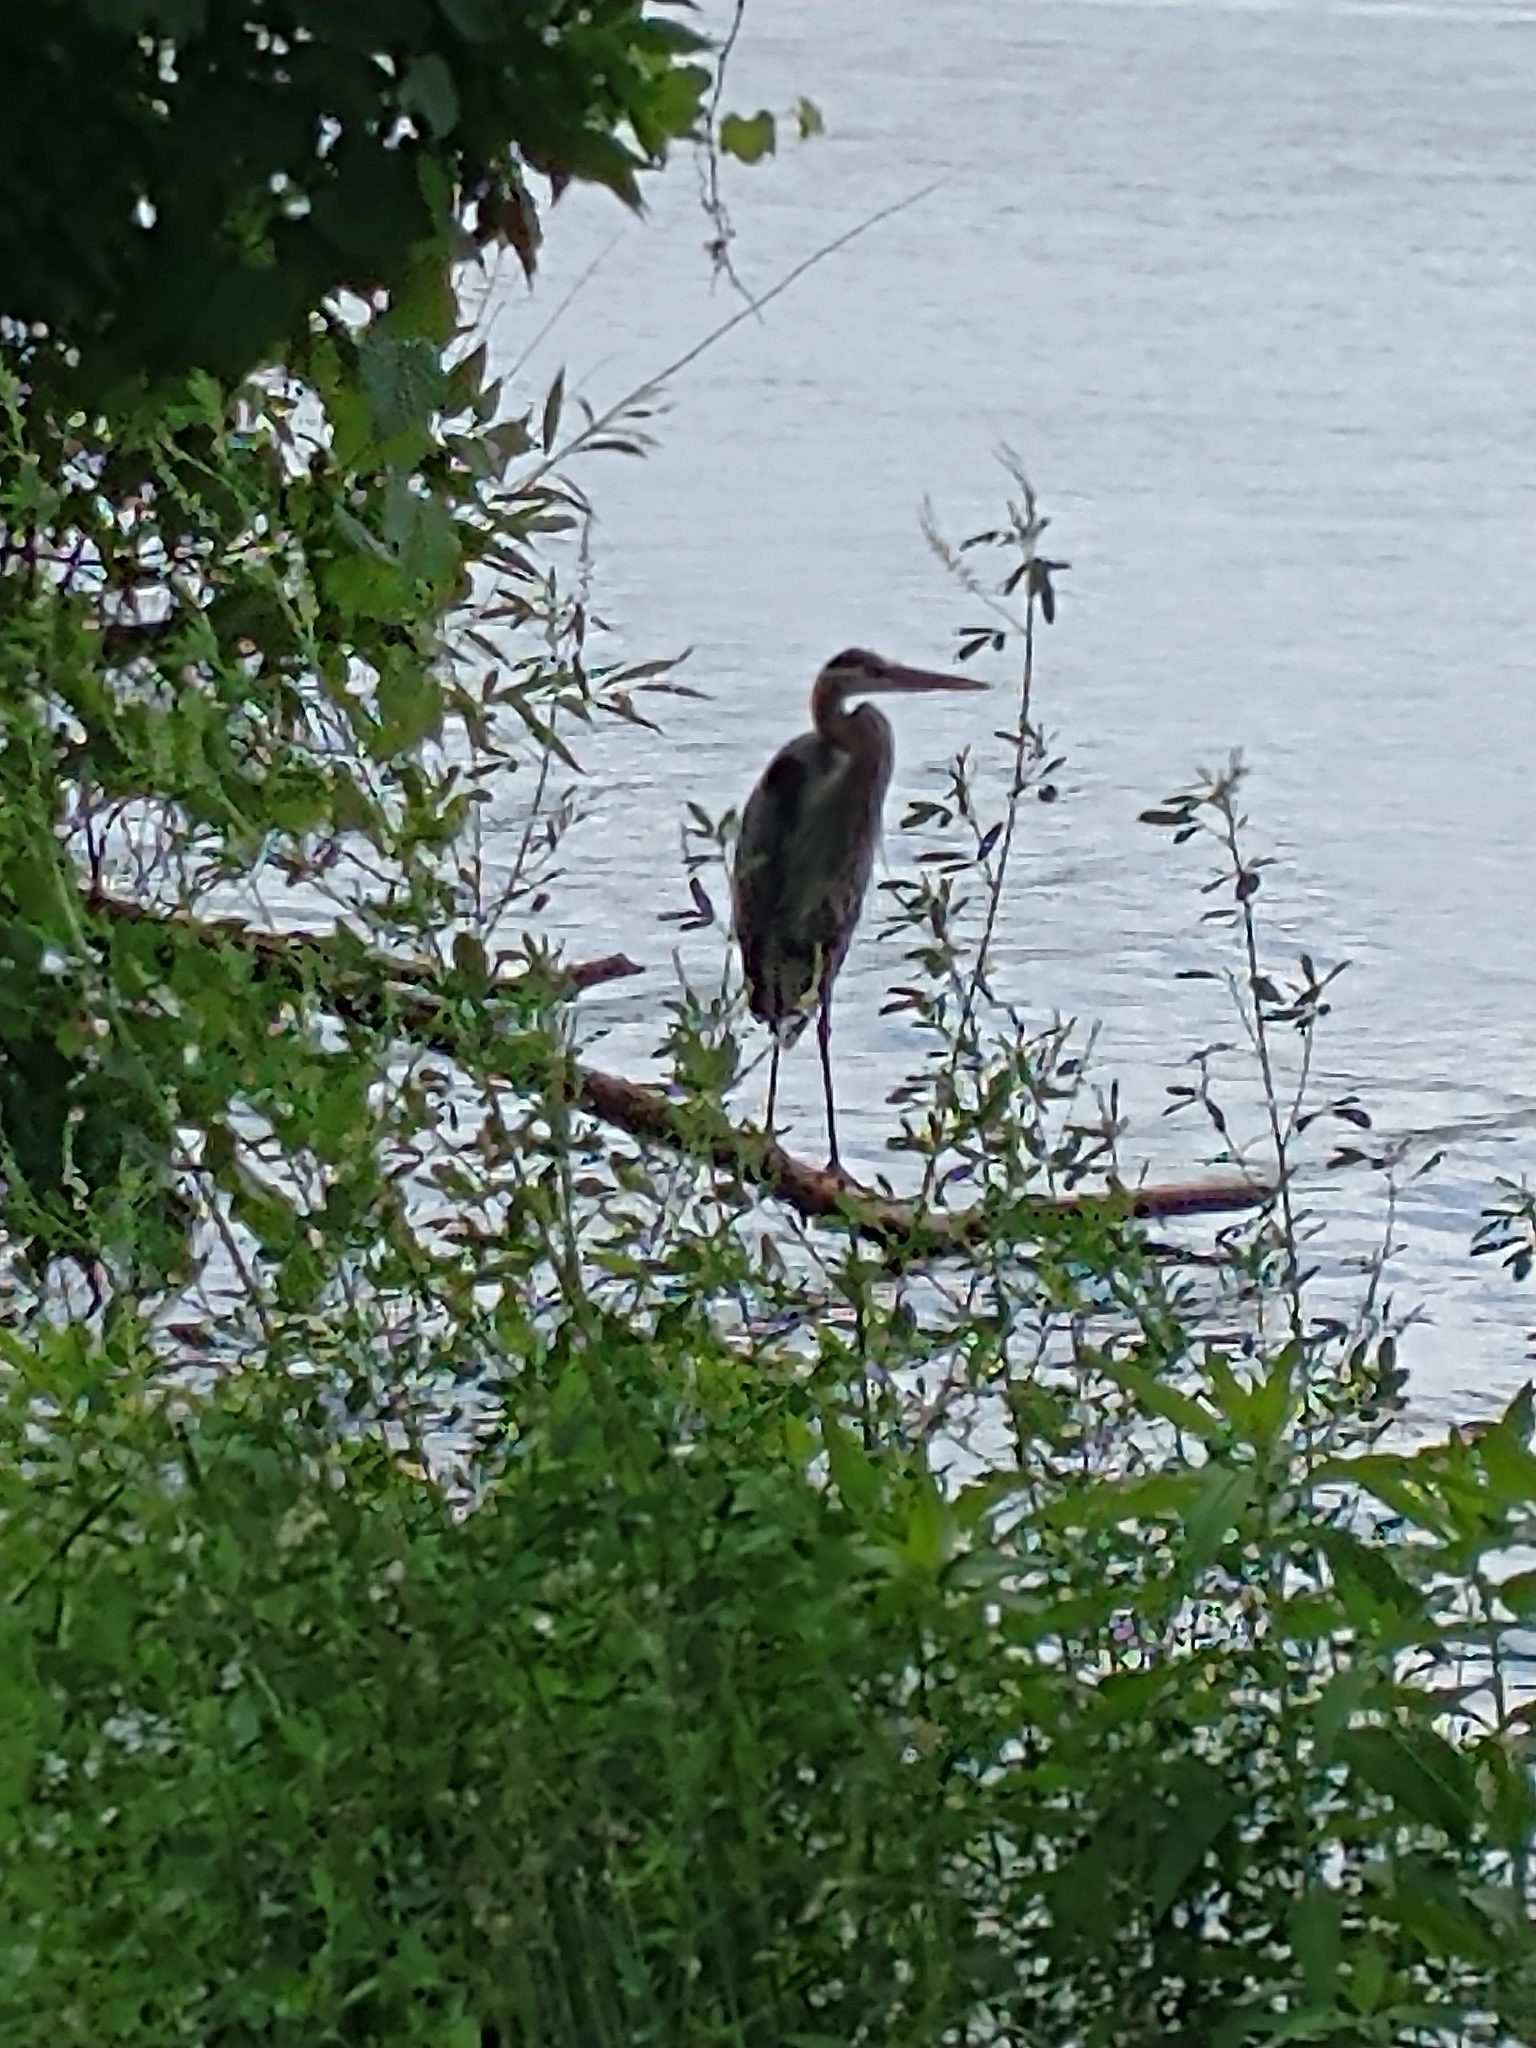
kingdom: Animalia
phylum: Chordata
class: Aves
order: Pelecaniformes
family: Ardeidae
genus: Ardea
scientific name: Ardea herodias
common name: Great blue heron
